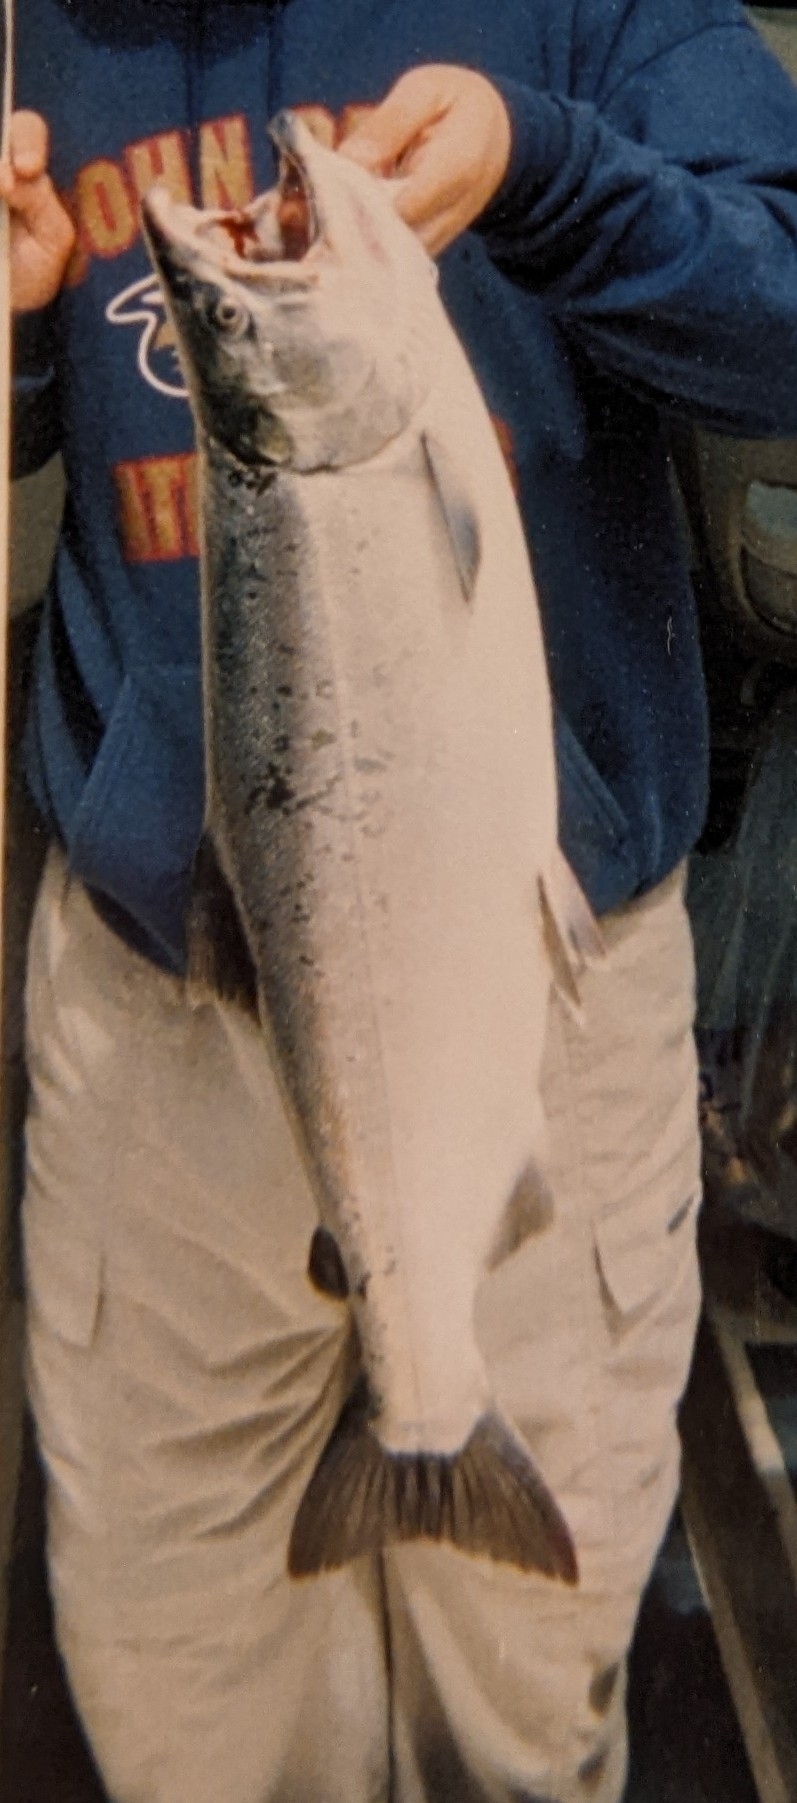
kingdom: Animalia
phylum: Chordata
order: Salmoniformes
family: Salmonidae
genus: Oncorhynchus
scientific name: Oncorhynchus kisutch
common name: Coho salmon
